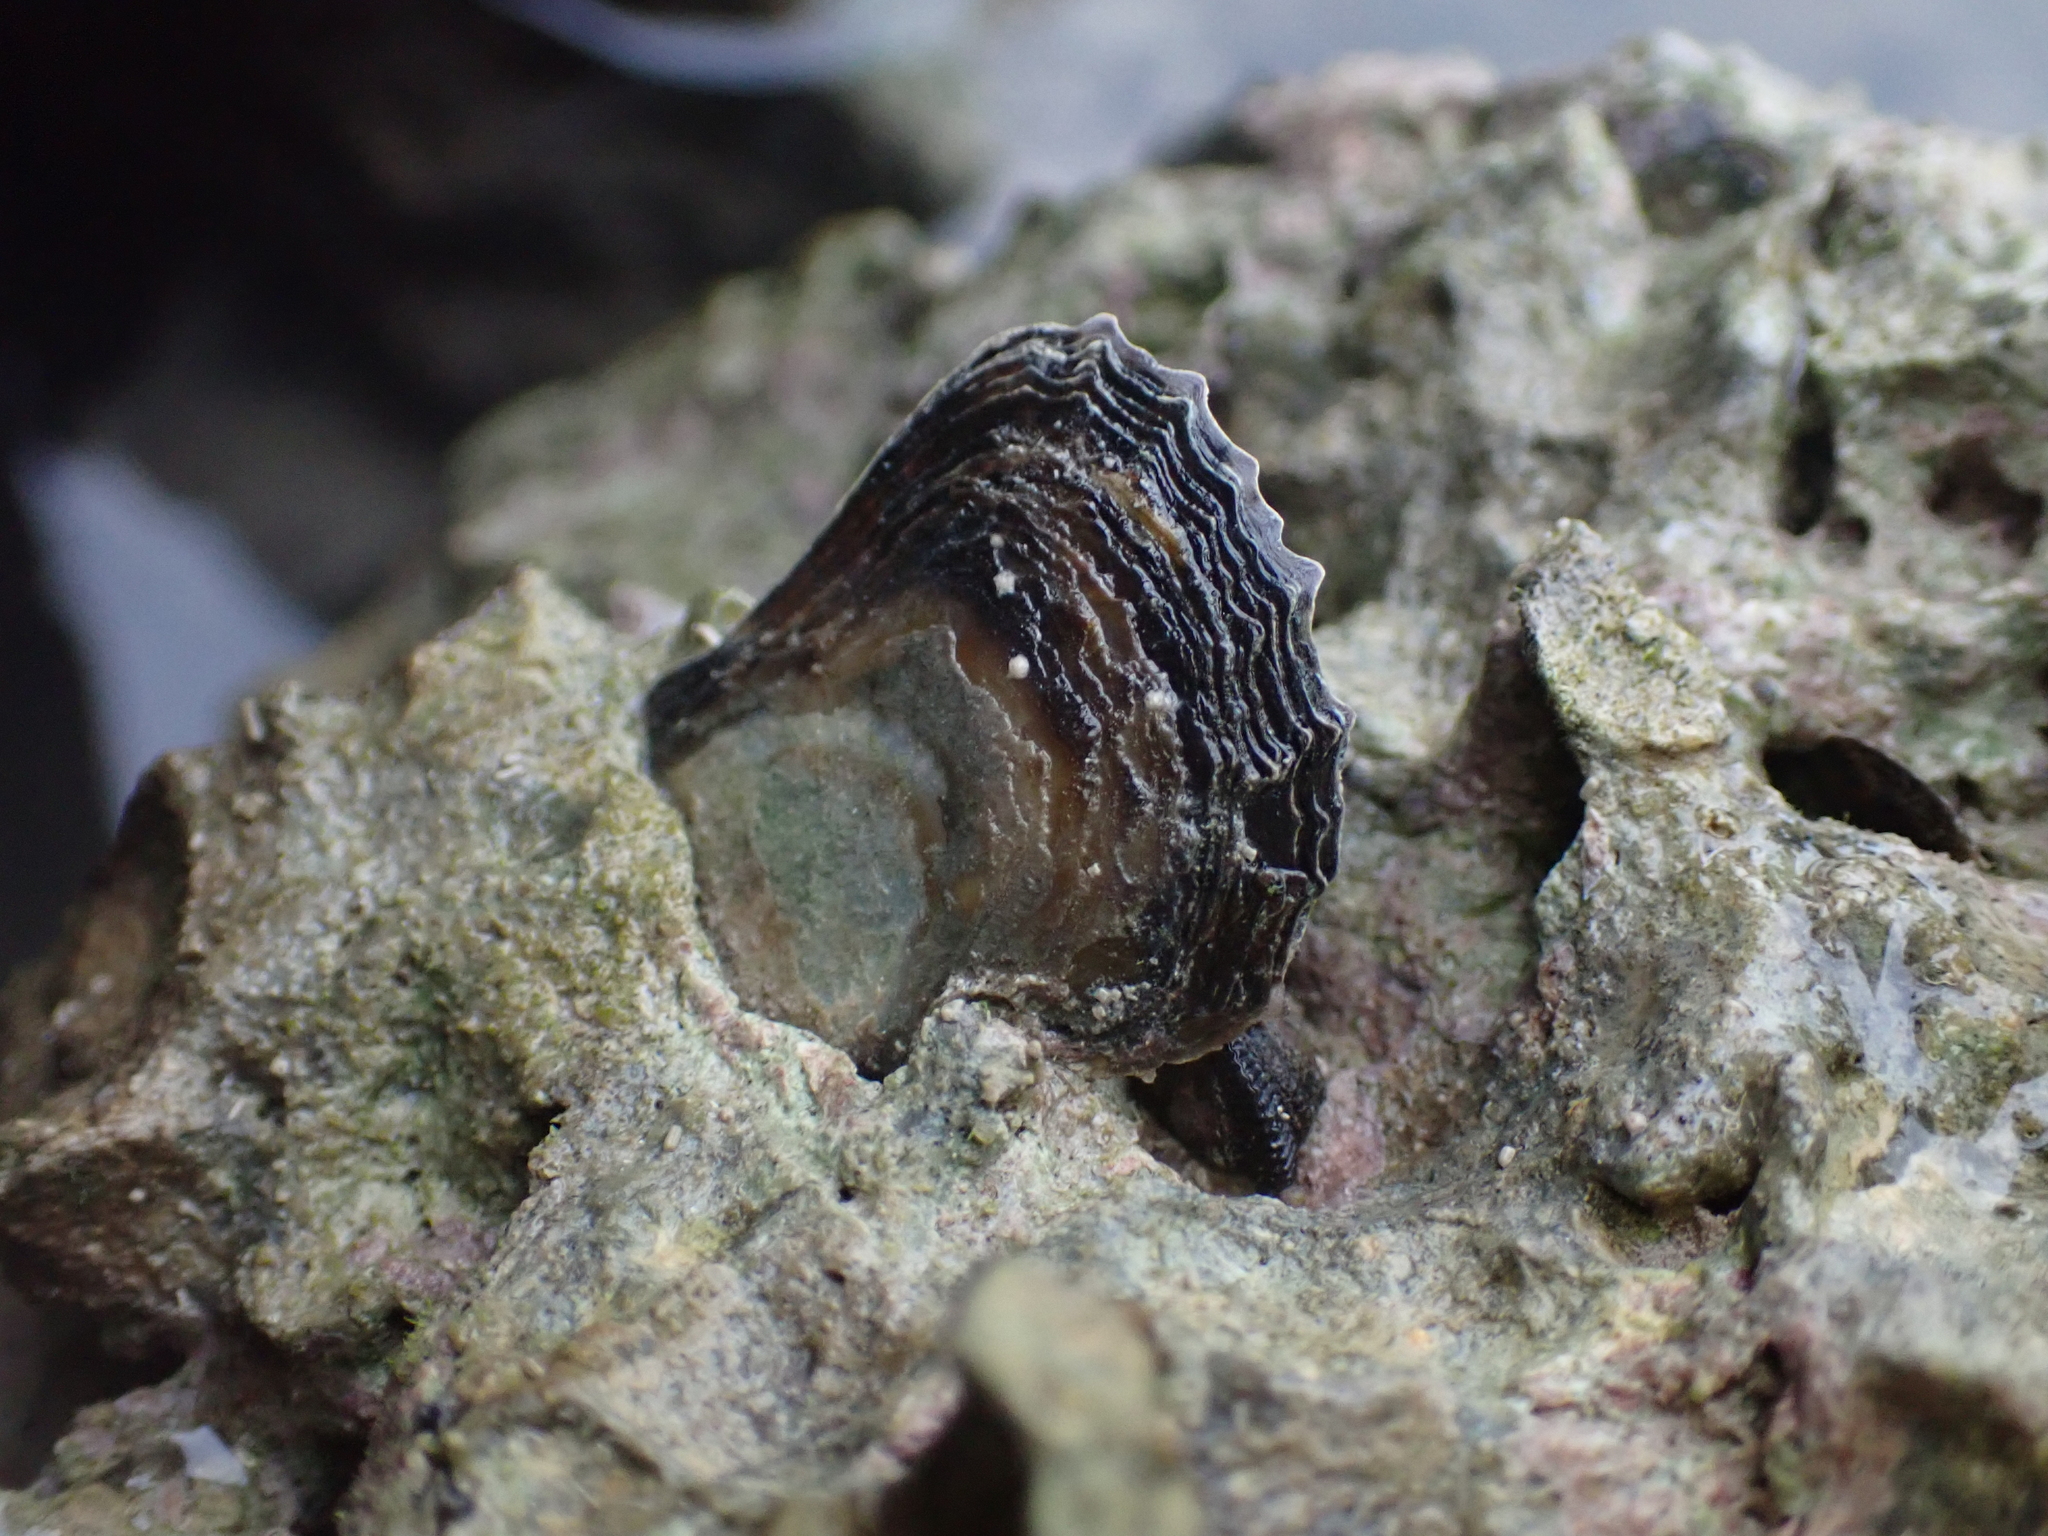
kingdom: Animalia
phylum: Mollusca
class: Bivalvia
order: Ostreida
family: Isognomonidae
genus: Isognomon
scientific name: Isognomon alatus
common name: Flat tree-oyster
